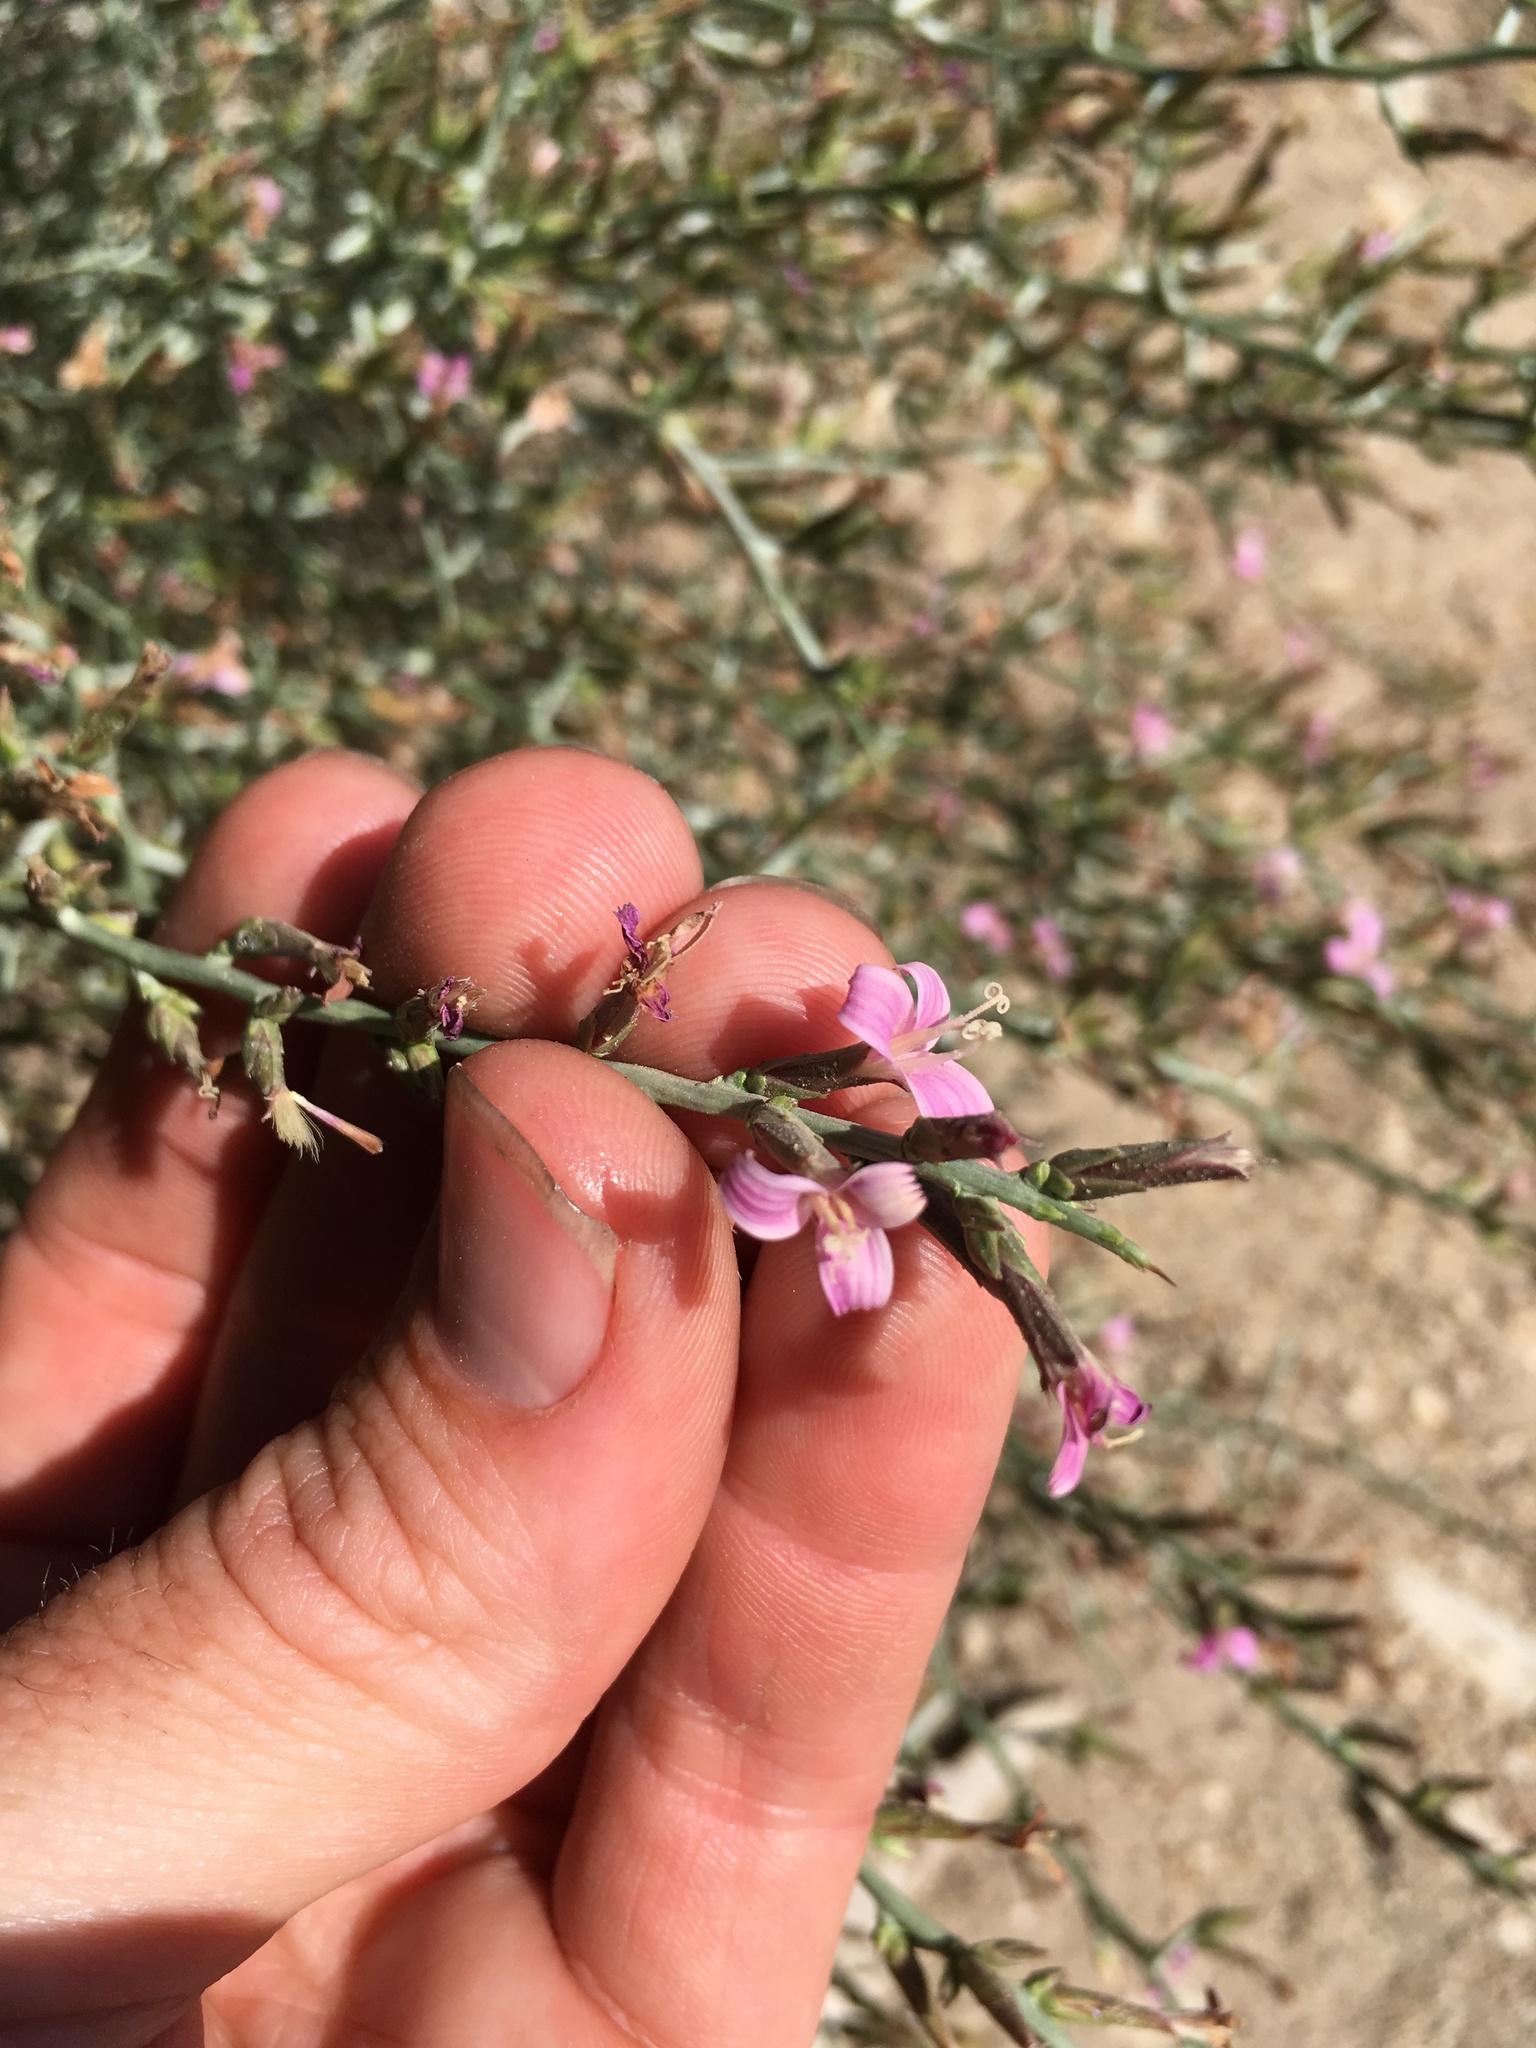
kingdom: Plantae
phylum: Tracheophyta
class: Magnoliopsida
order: Asterales
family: Asteraceae
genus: Pleiacanthus
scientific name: Pleiacanthus spinosus
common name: Thorny skeleton-weed
